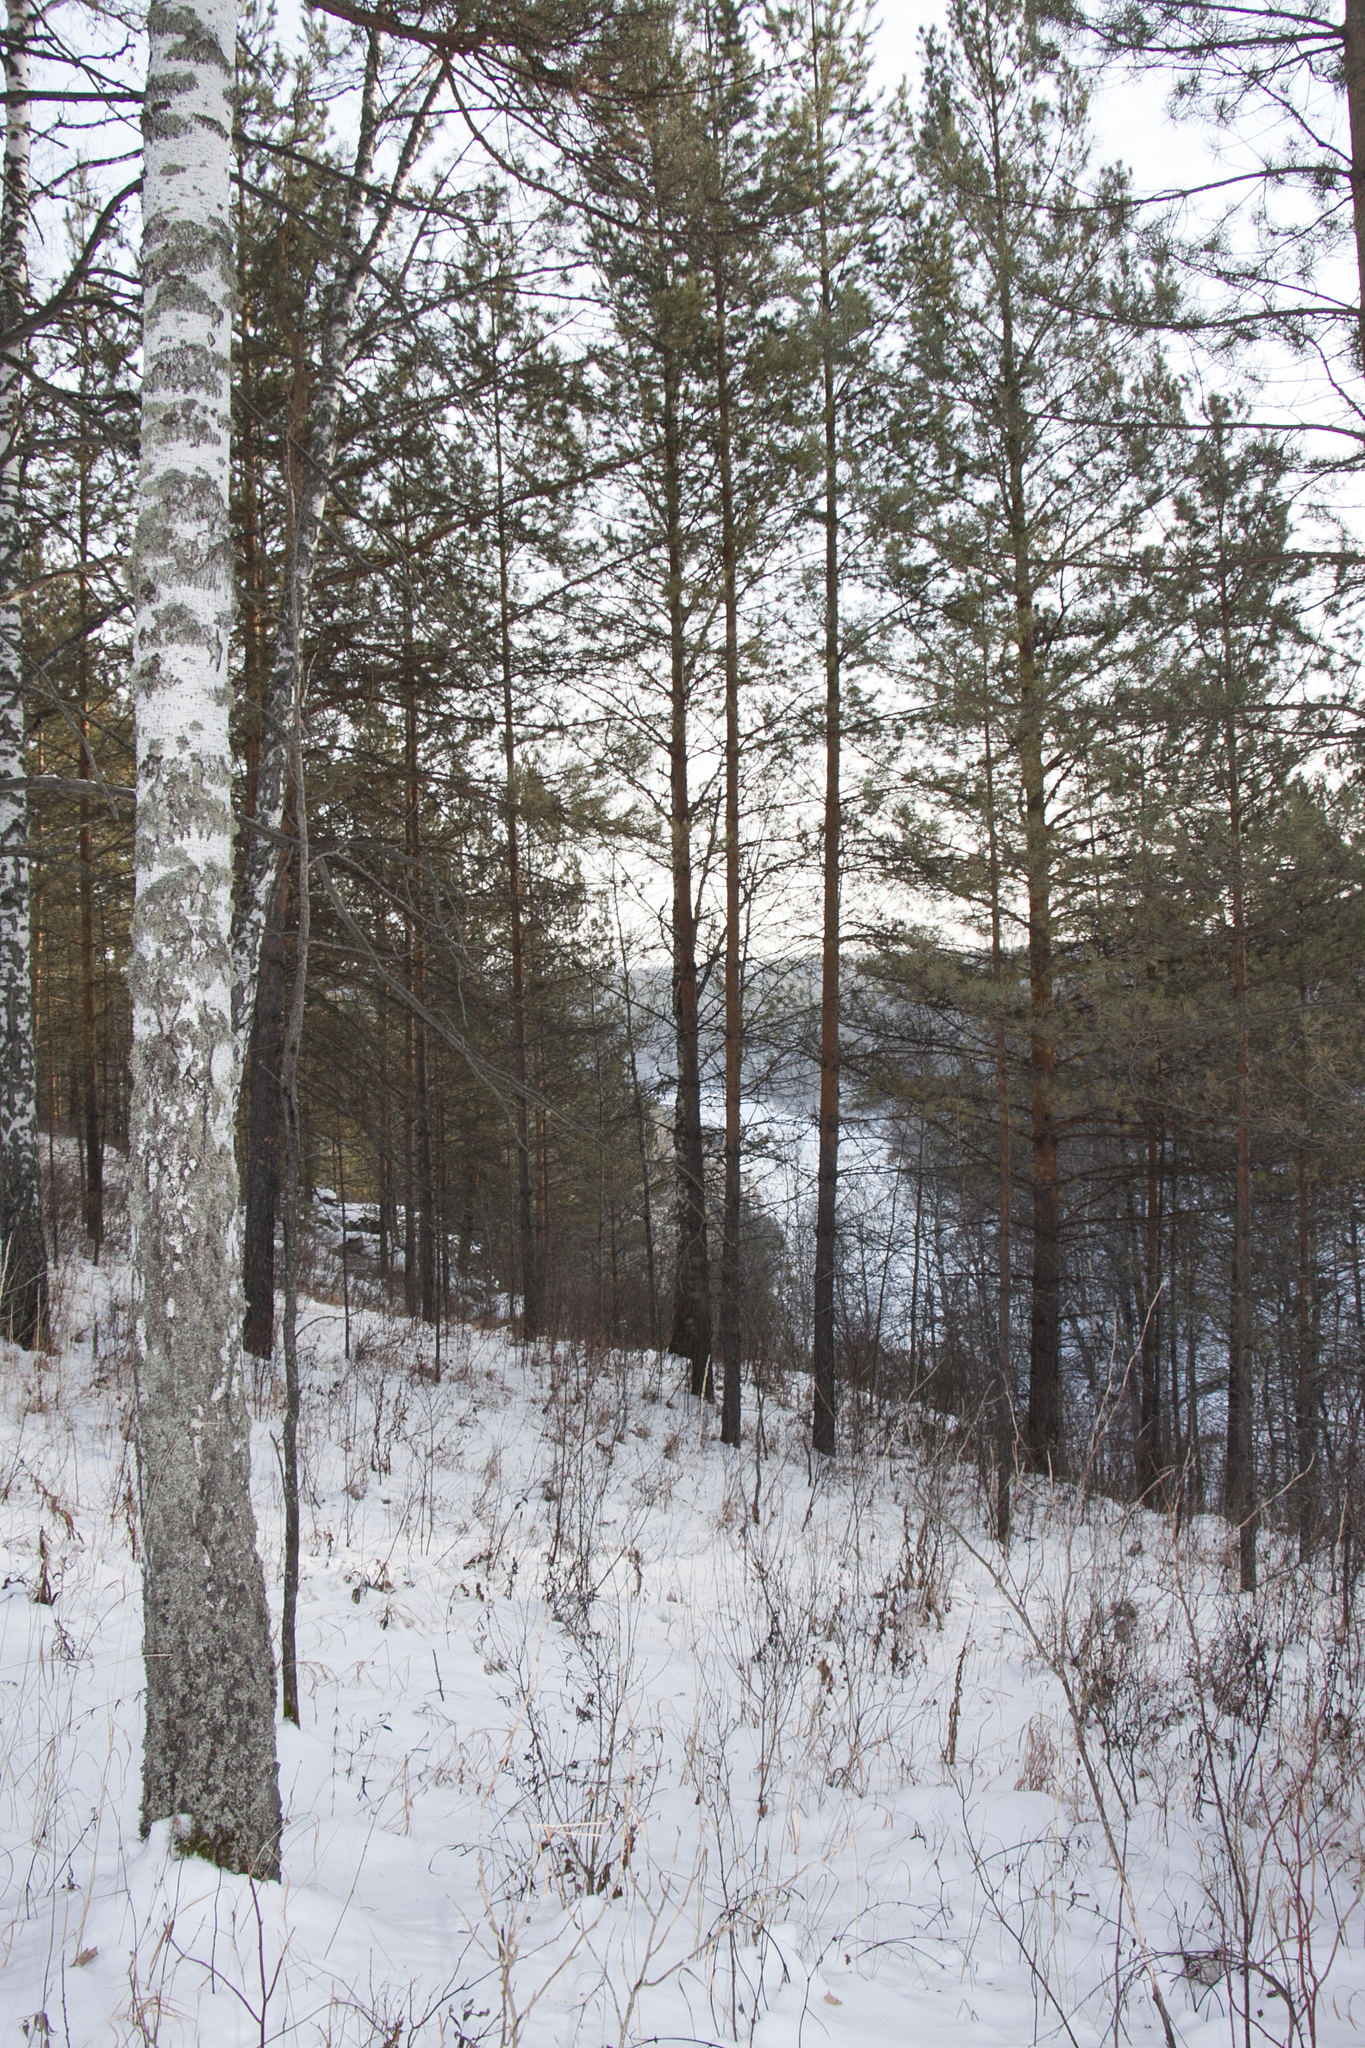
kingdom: Plantae
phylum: Tracheophyta
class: Pinopsida
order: Pinales
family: Pinaceae
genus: Pinus
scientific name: Pinus sylvestris
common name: Scots pine
